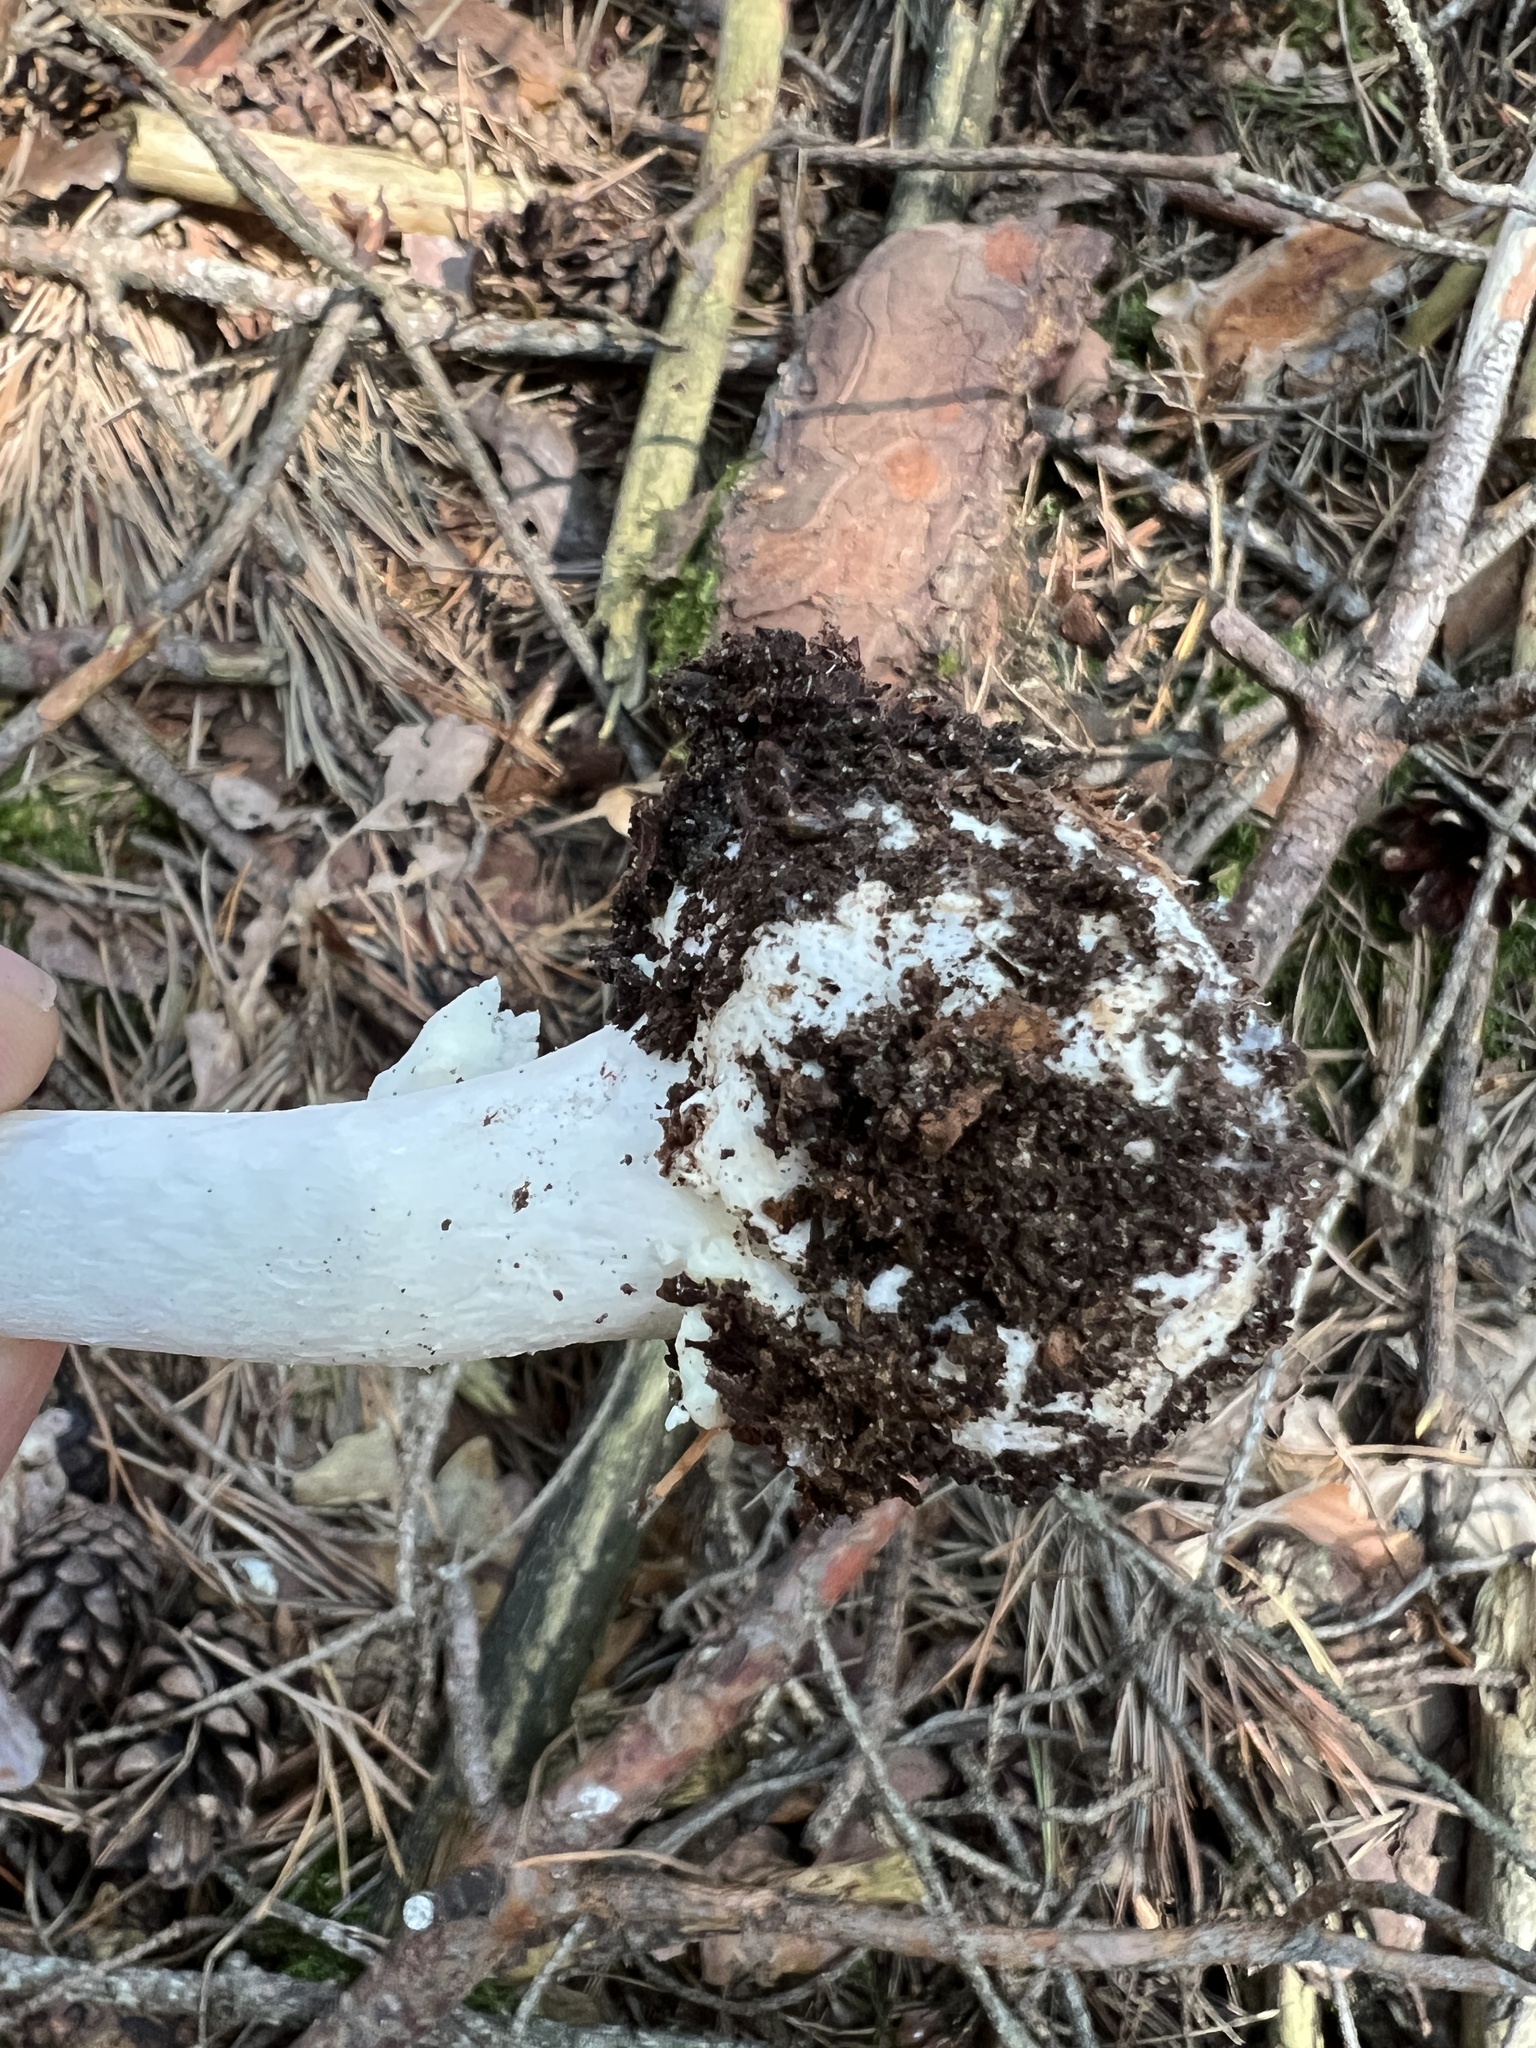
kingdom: Fungi
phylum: Basidiomycota
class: Agaricomycetes
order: Agaricales
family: Amanitaceae
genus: Amanita
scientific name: Amanita citrina
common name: False death-cap
